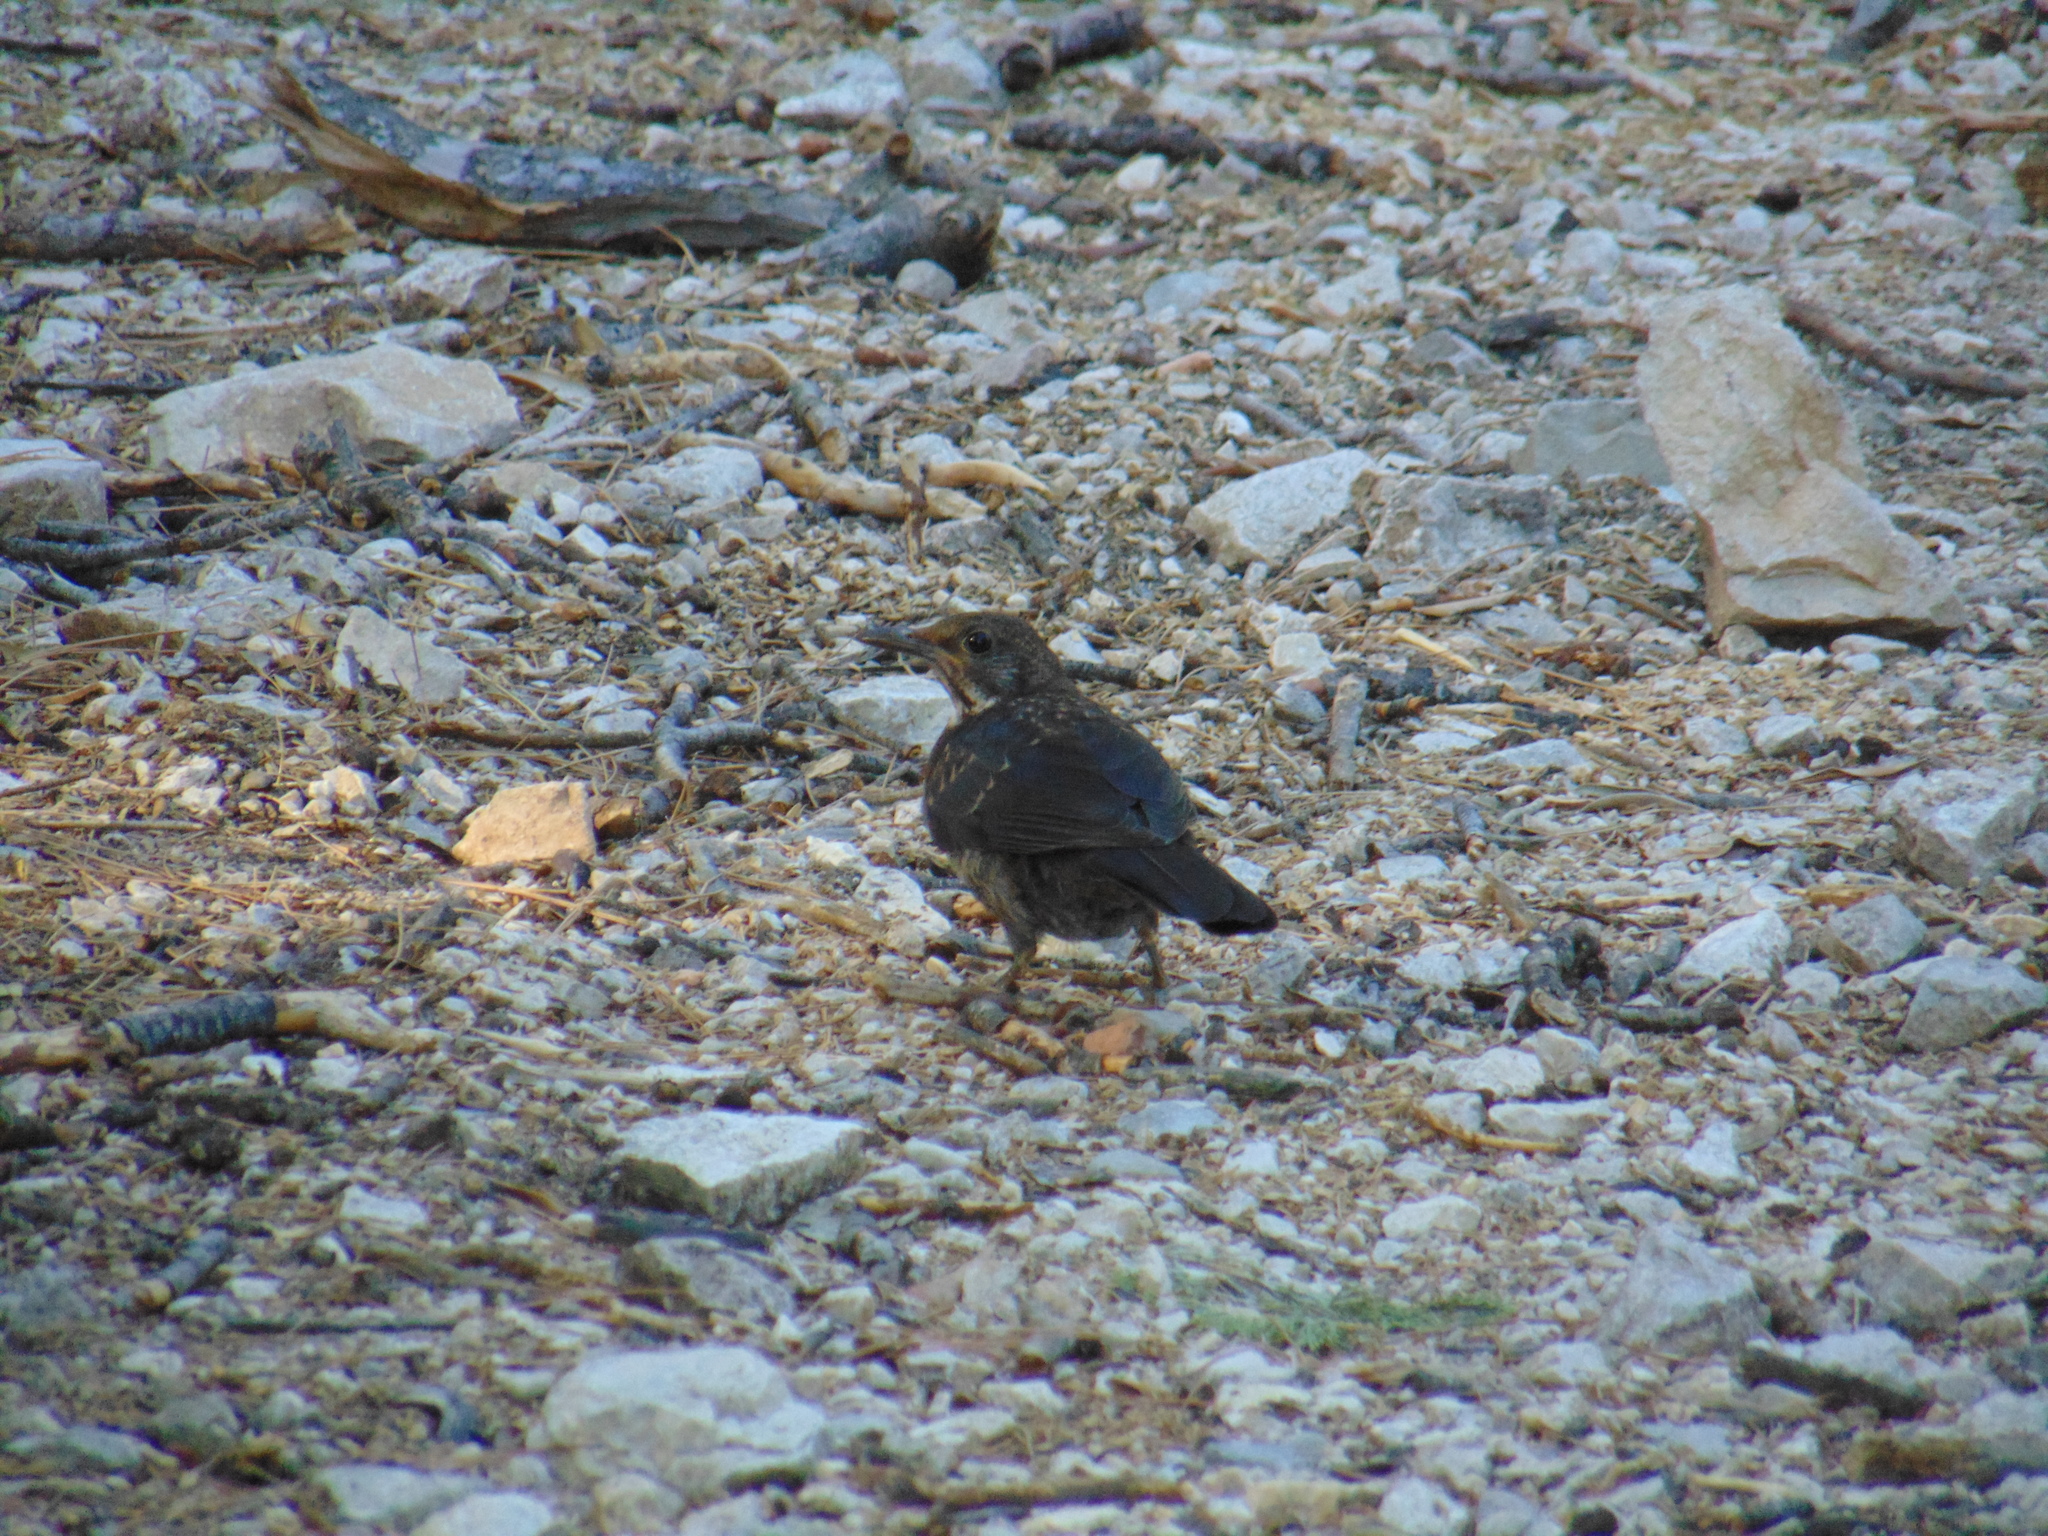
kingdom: Animalia
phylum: Chordata
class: Aves
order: Passeriformes
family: Turdidae
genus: Turdus
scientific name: Turdus merula
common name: Common blackbird
